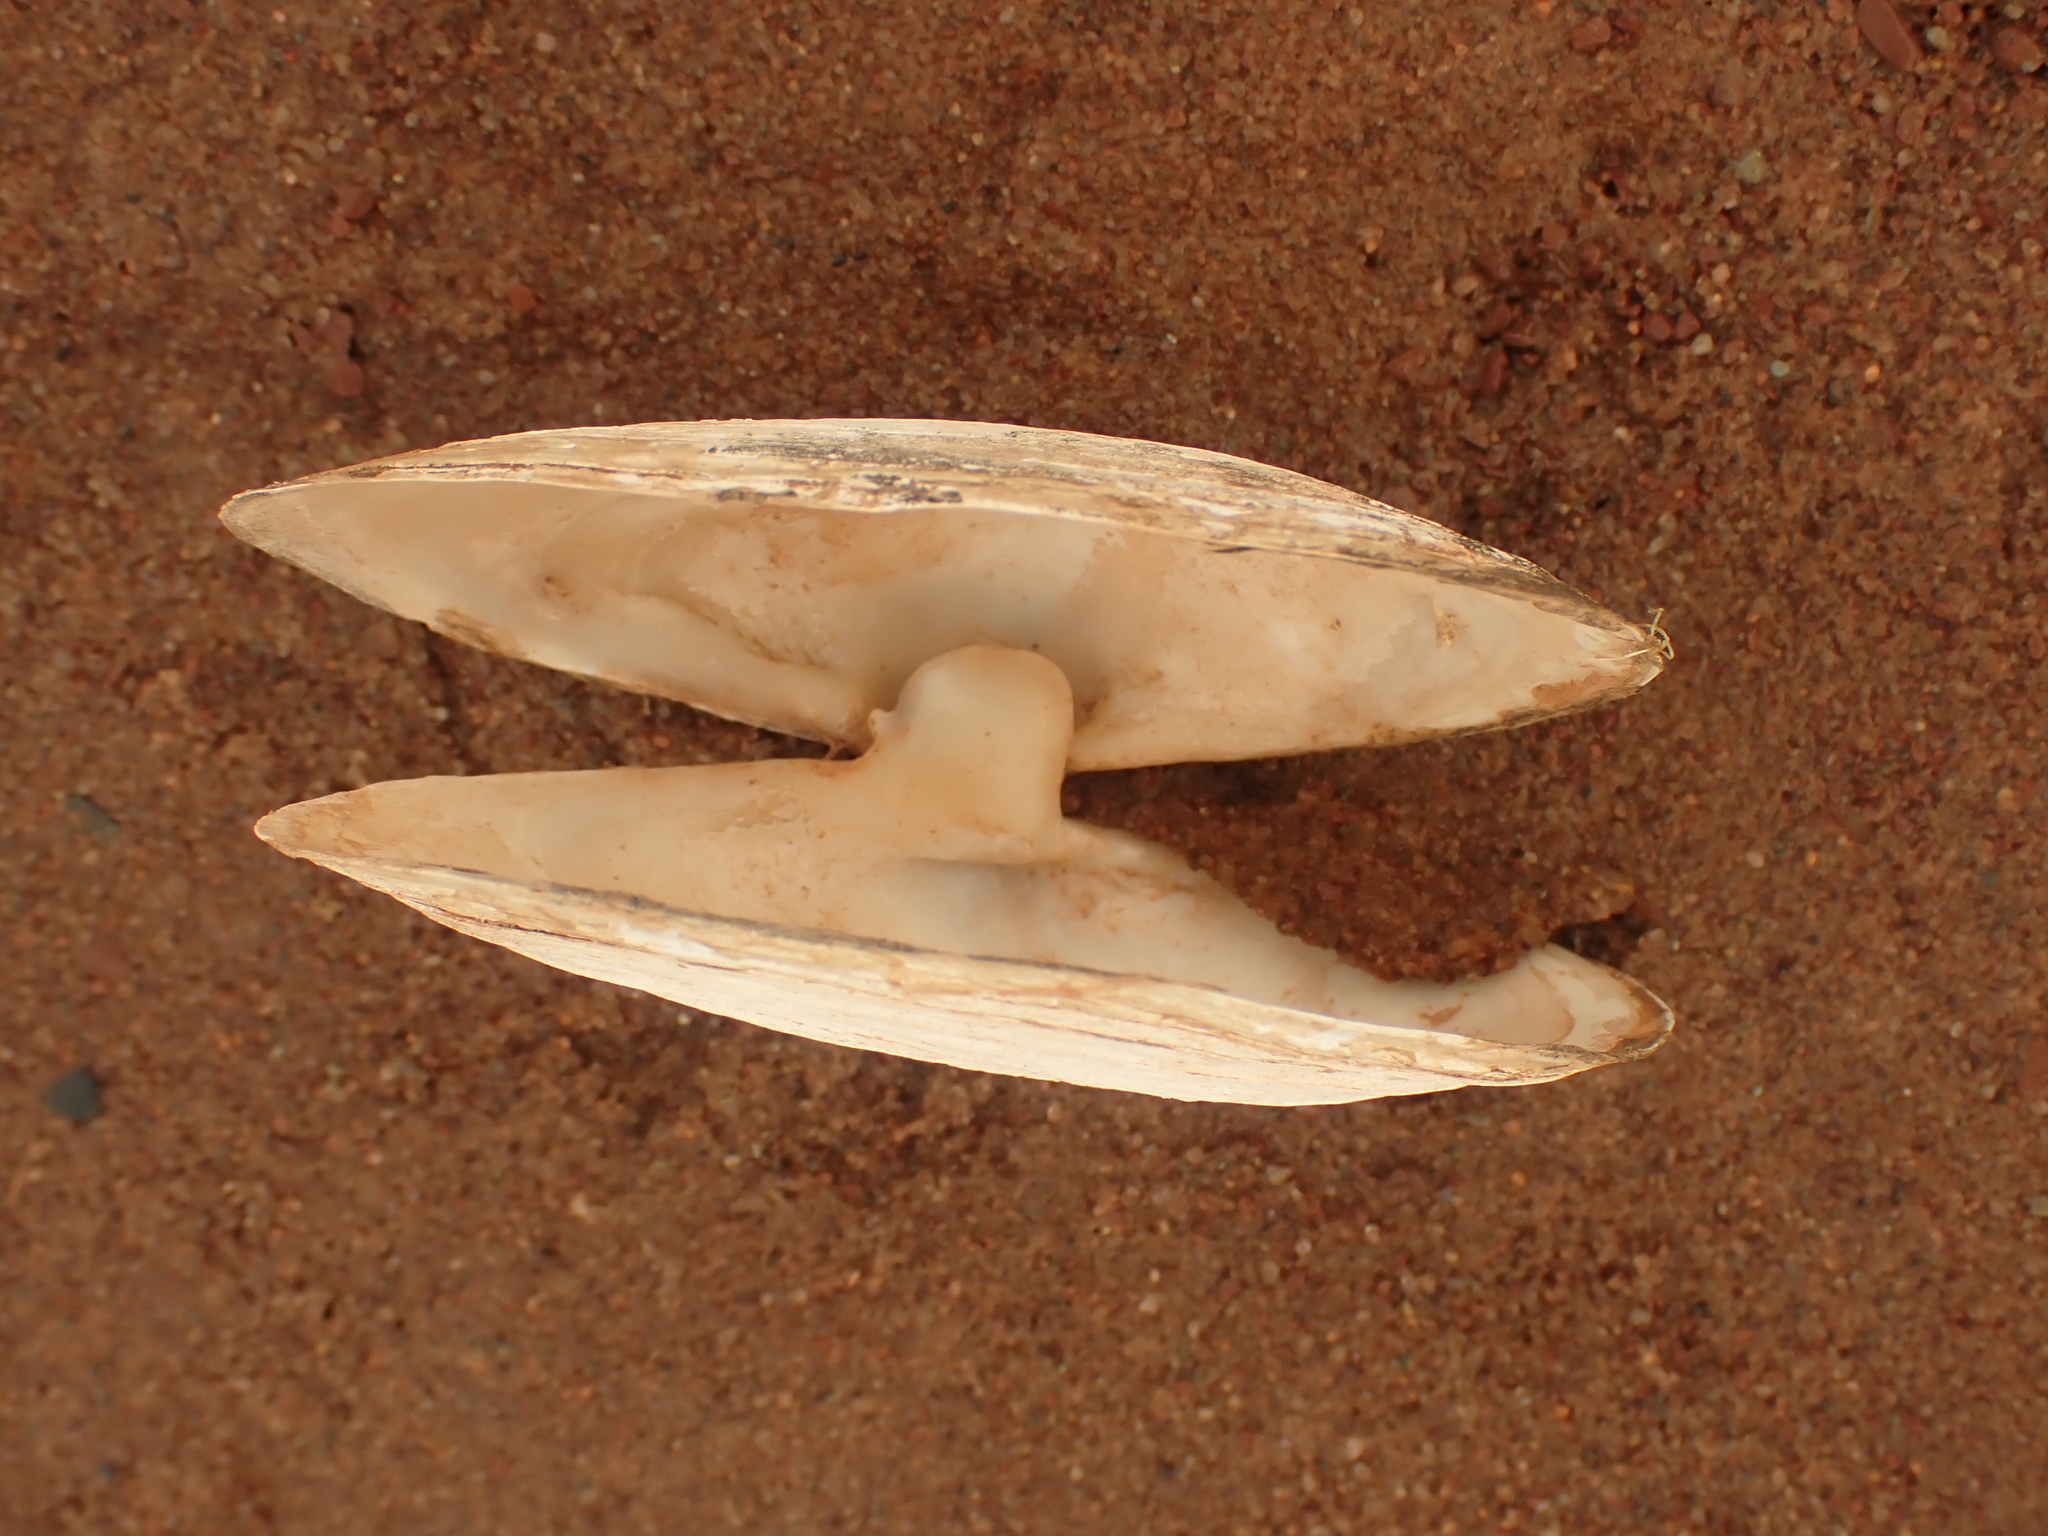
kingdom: Animalia
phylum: Mollusca
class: Bivalvia
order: Myida
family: Myidae
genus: Mya
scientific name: Mya arenaria
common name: Soft-shelled clam
